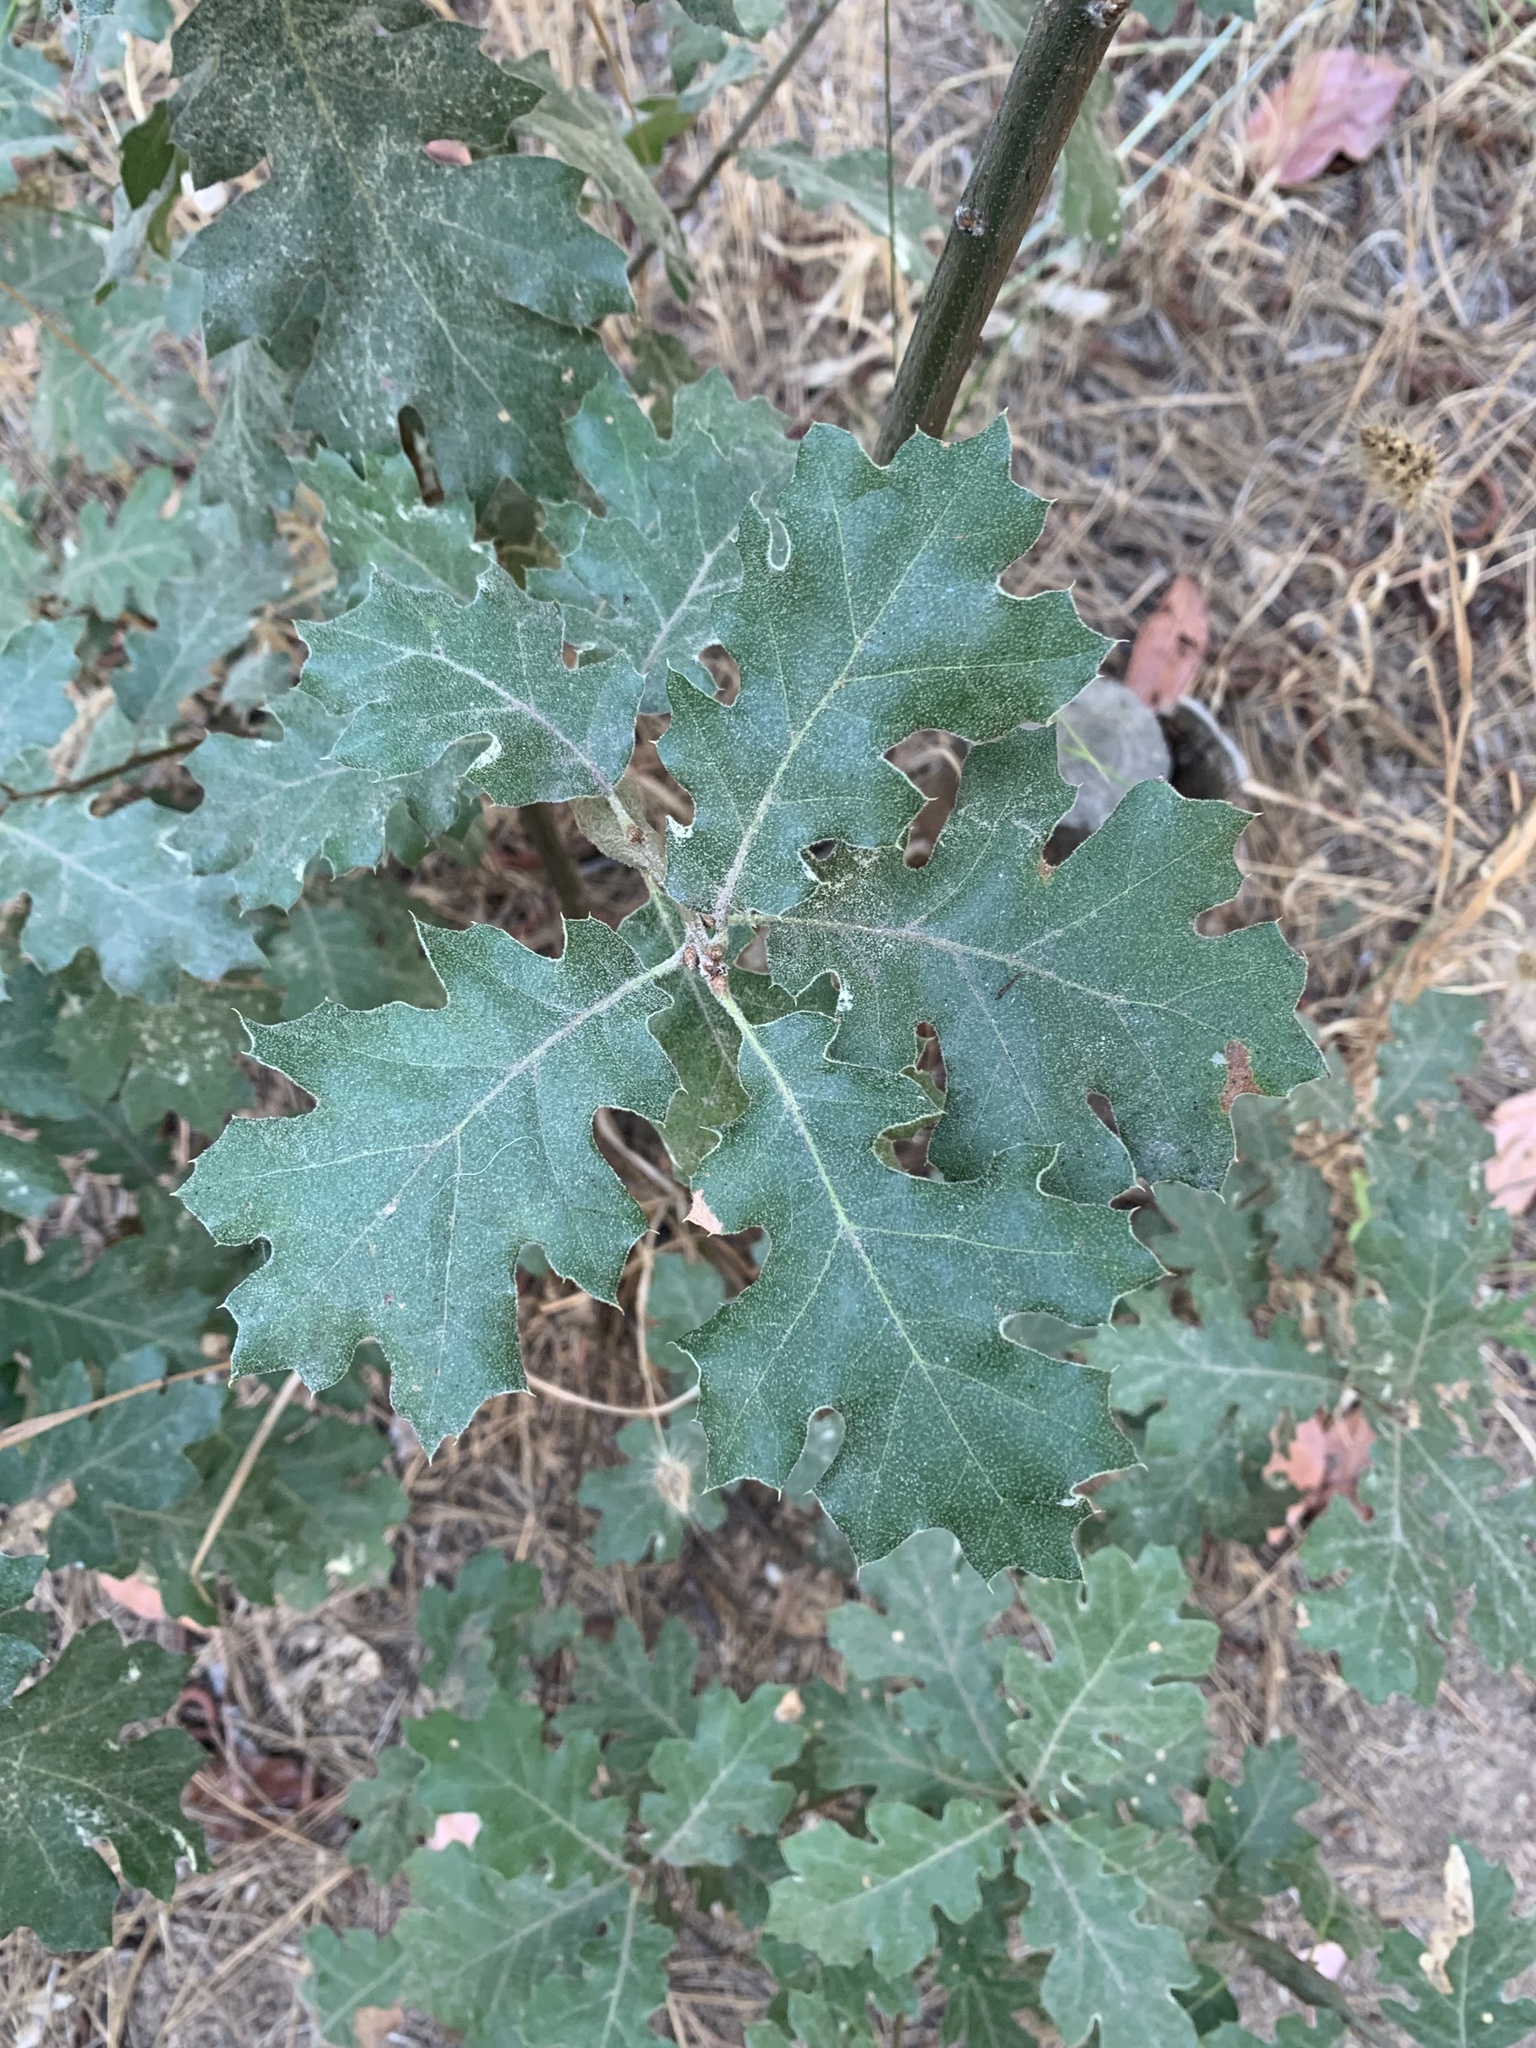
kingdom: Plantae
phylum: Tracheophyta
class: Magnoliopsida
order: Fagales
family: Fagaceae
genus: Quercus
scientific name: Quercus kelloggii
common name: California black oak
